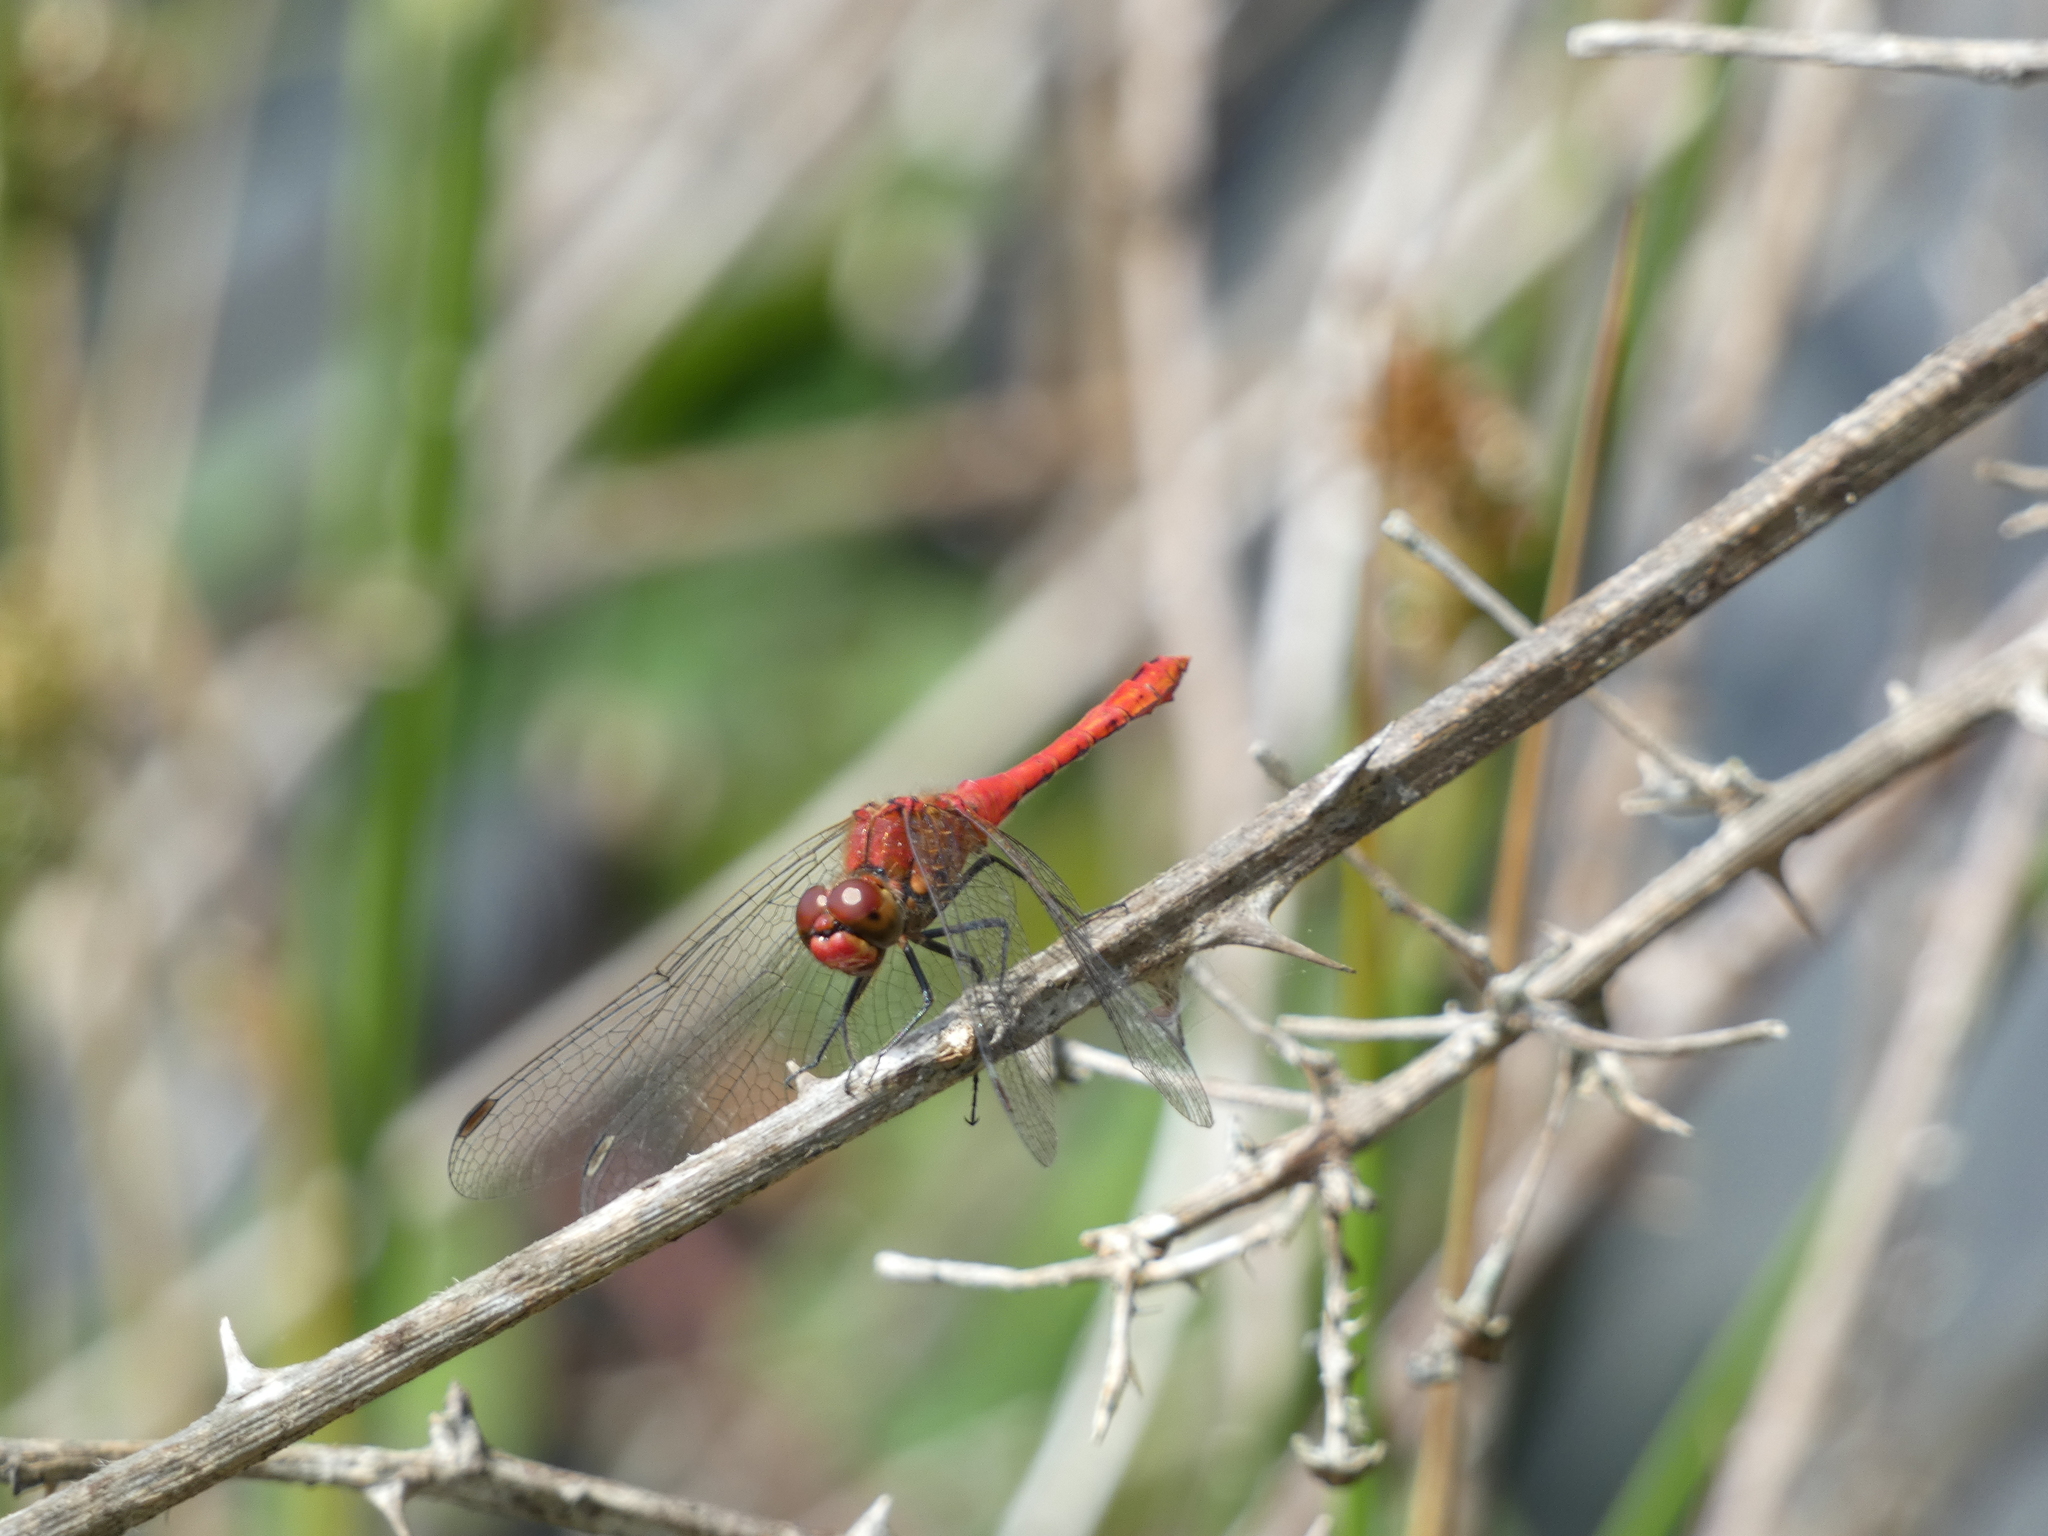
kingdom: Animalia
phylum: Arthropoda
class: Insecta
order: Odonata
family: Libellulidae
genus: Sympetrum
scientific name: Sympetrum sanguineum
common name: Ruddy darter
